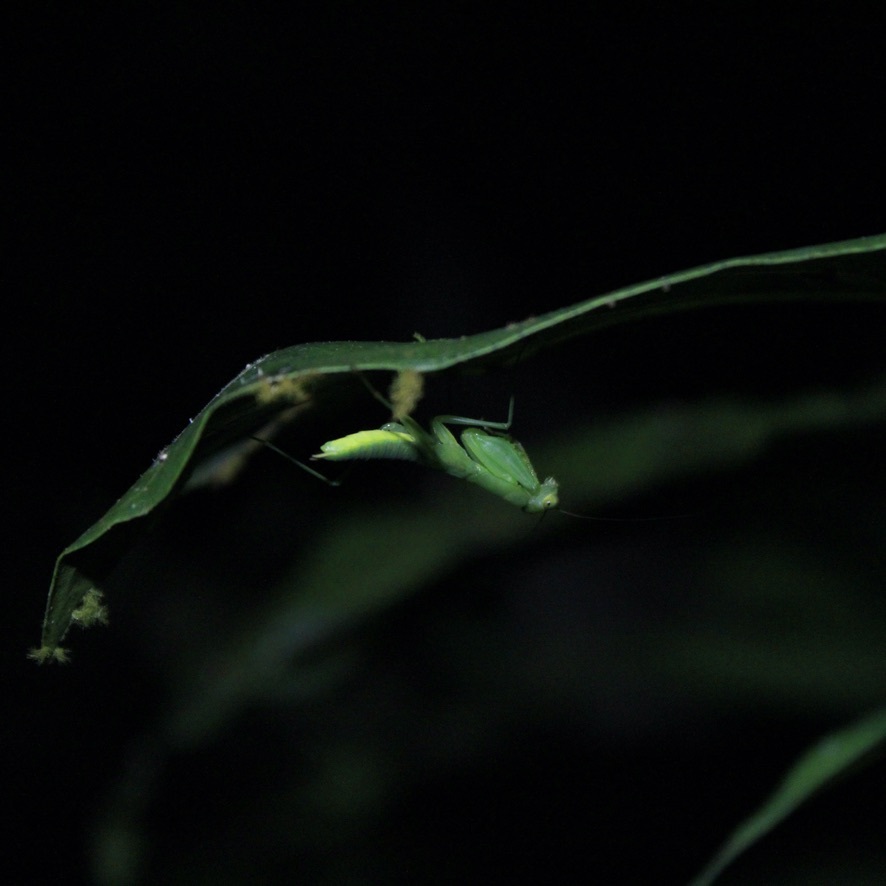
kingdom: Animalia
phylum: Arthropoda
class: Insecta
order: Mantodea
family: Acanthopidae
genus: Tithrone
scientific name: Tithrone roseipennis
